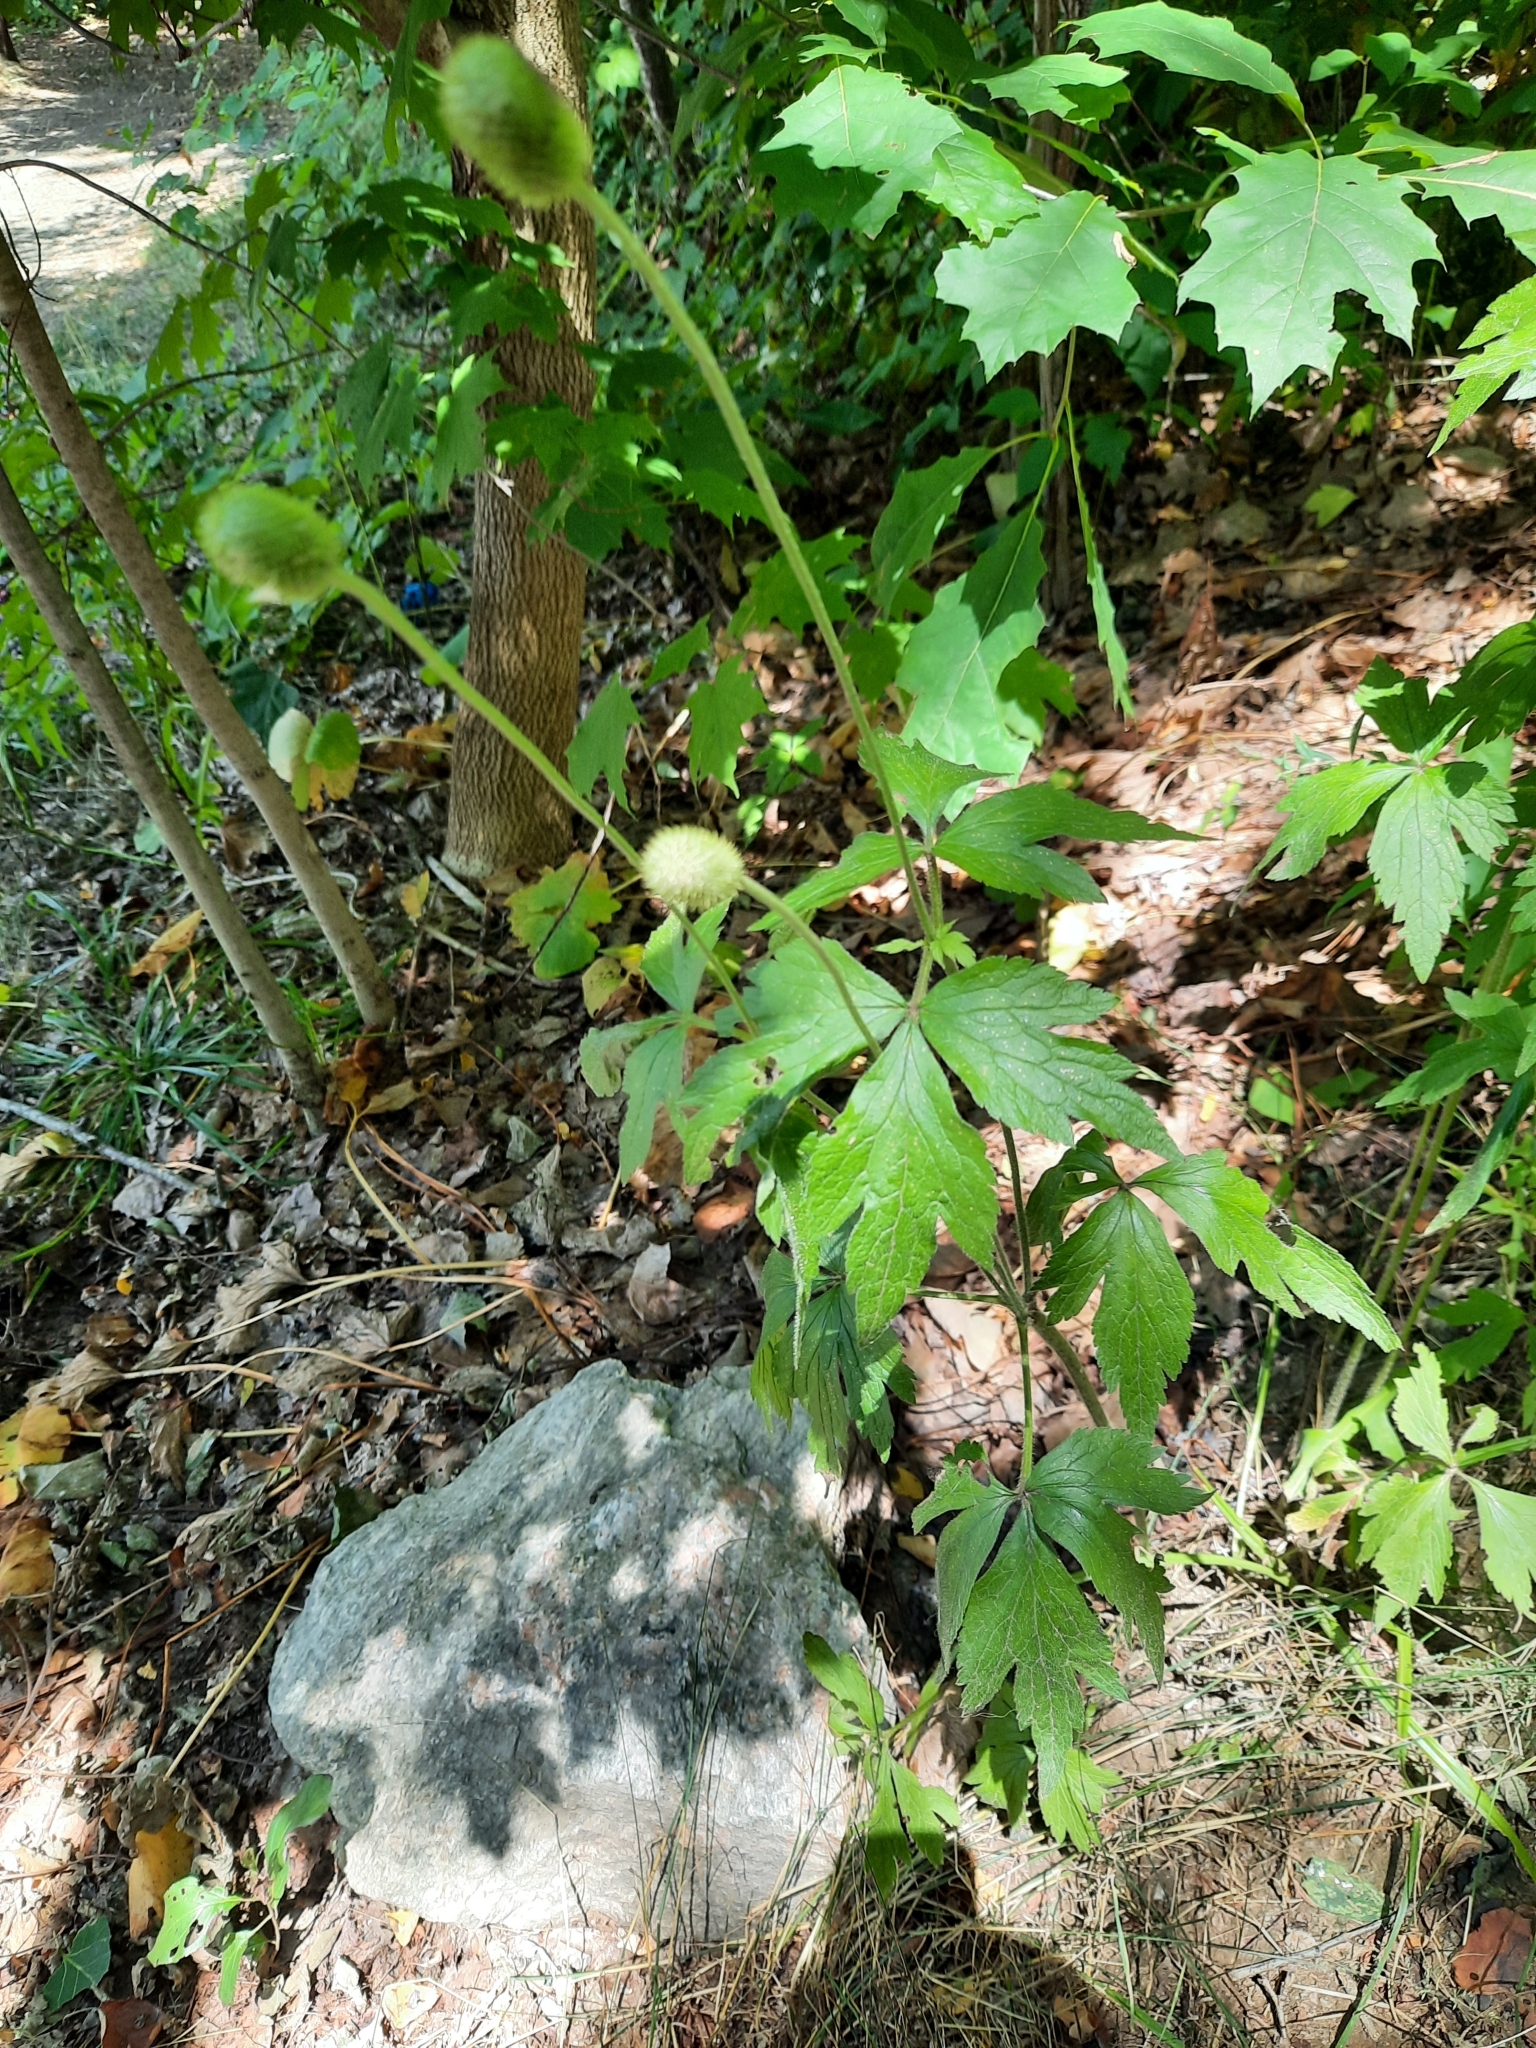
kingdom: Plantae
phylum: Tracheophyta
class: Magnoliopsida
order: Ranunculales
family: Ranunculaceae
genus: Anemone
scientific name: Anemone virginiana
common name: Tall anemone
